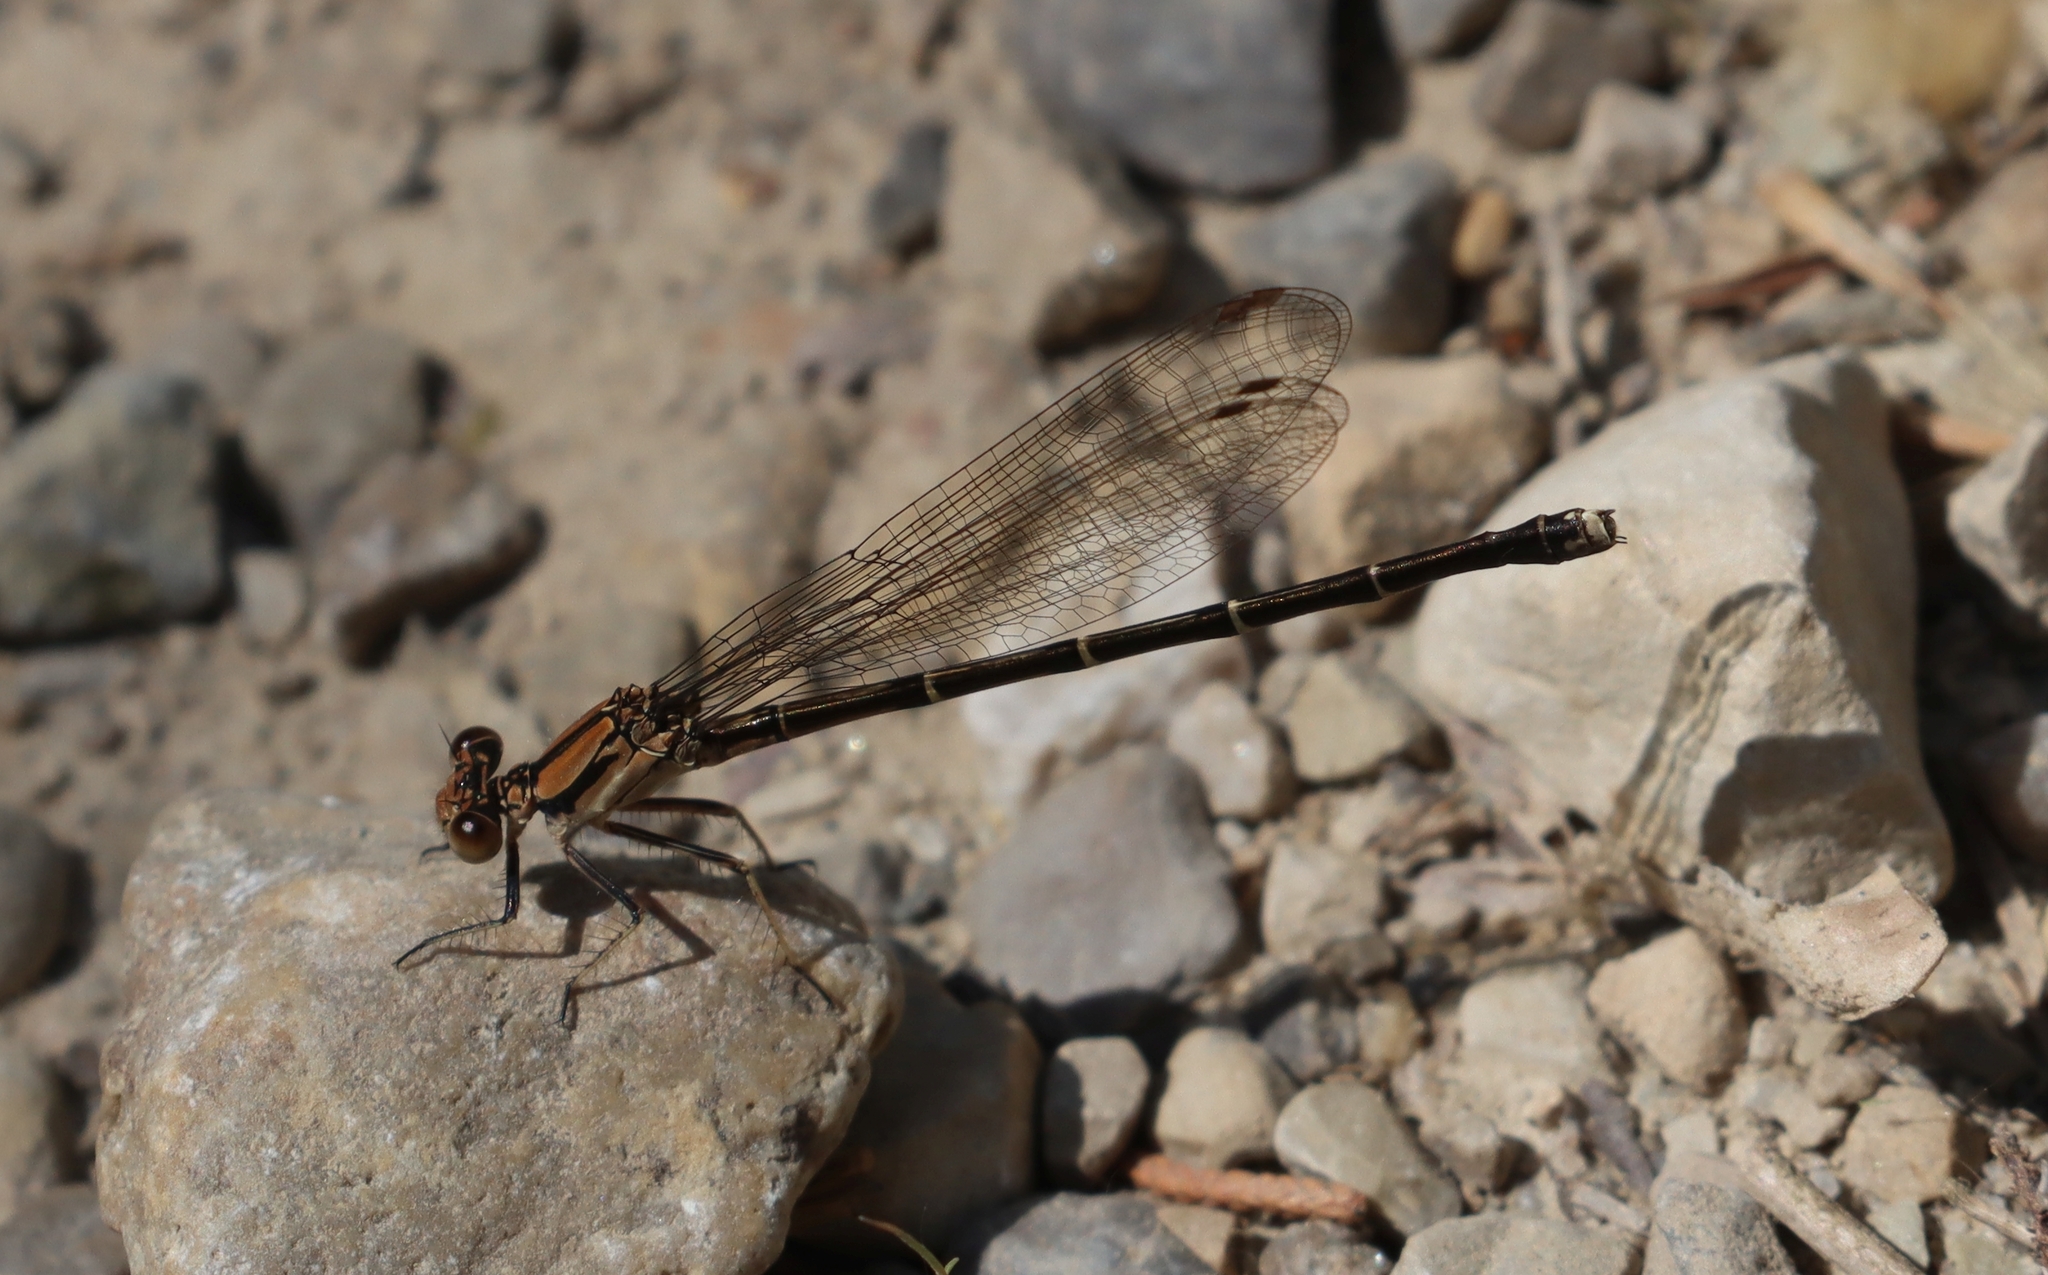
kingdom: Animalia
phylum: Arthropoda
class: Insecta
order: Odonata
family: Coenagrionidae
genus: Argia
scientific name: Argia tibialis
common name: Blue-tipped dancer
